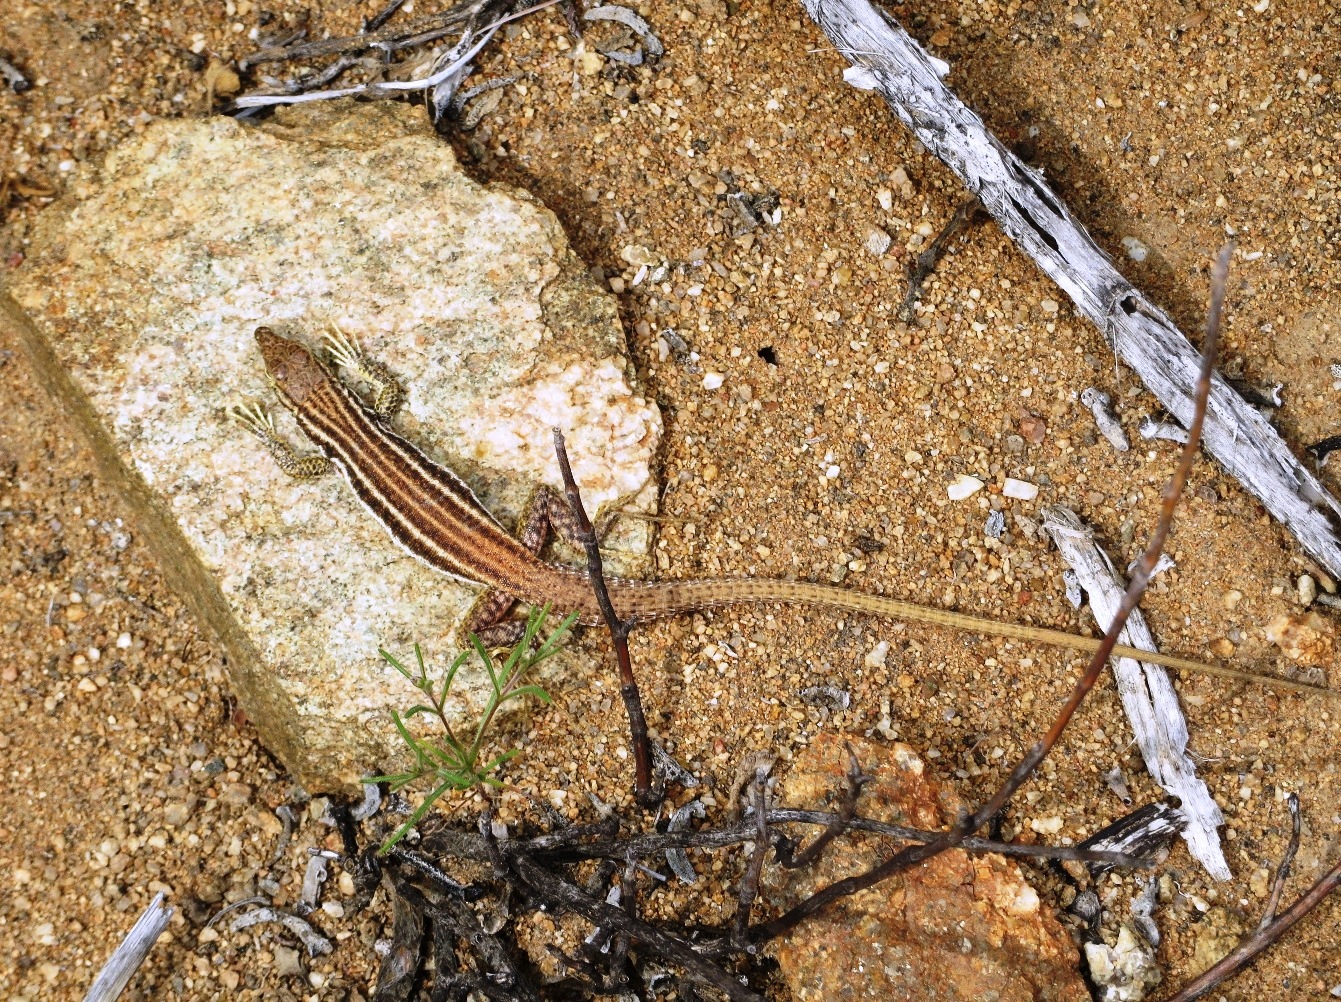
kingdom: Animalia
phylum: Chordata
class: Squamata
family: Lacertidae
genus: Pedioplanis
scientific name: Pedioplanis namaquensis
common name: Namaqua sand lizard
